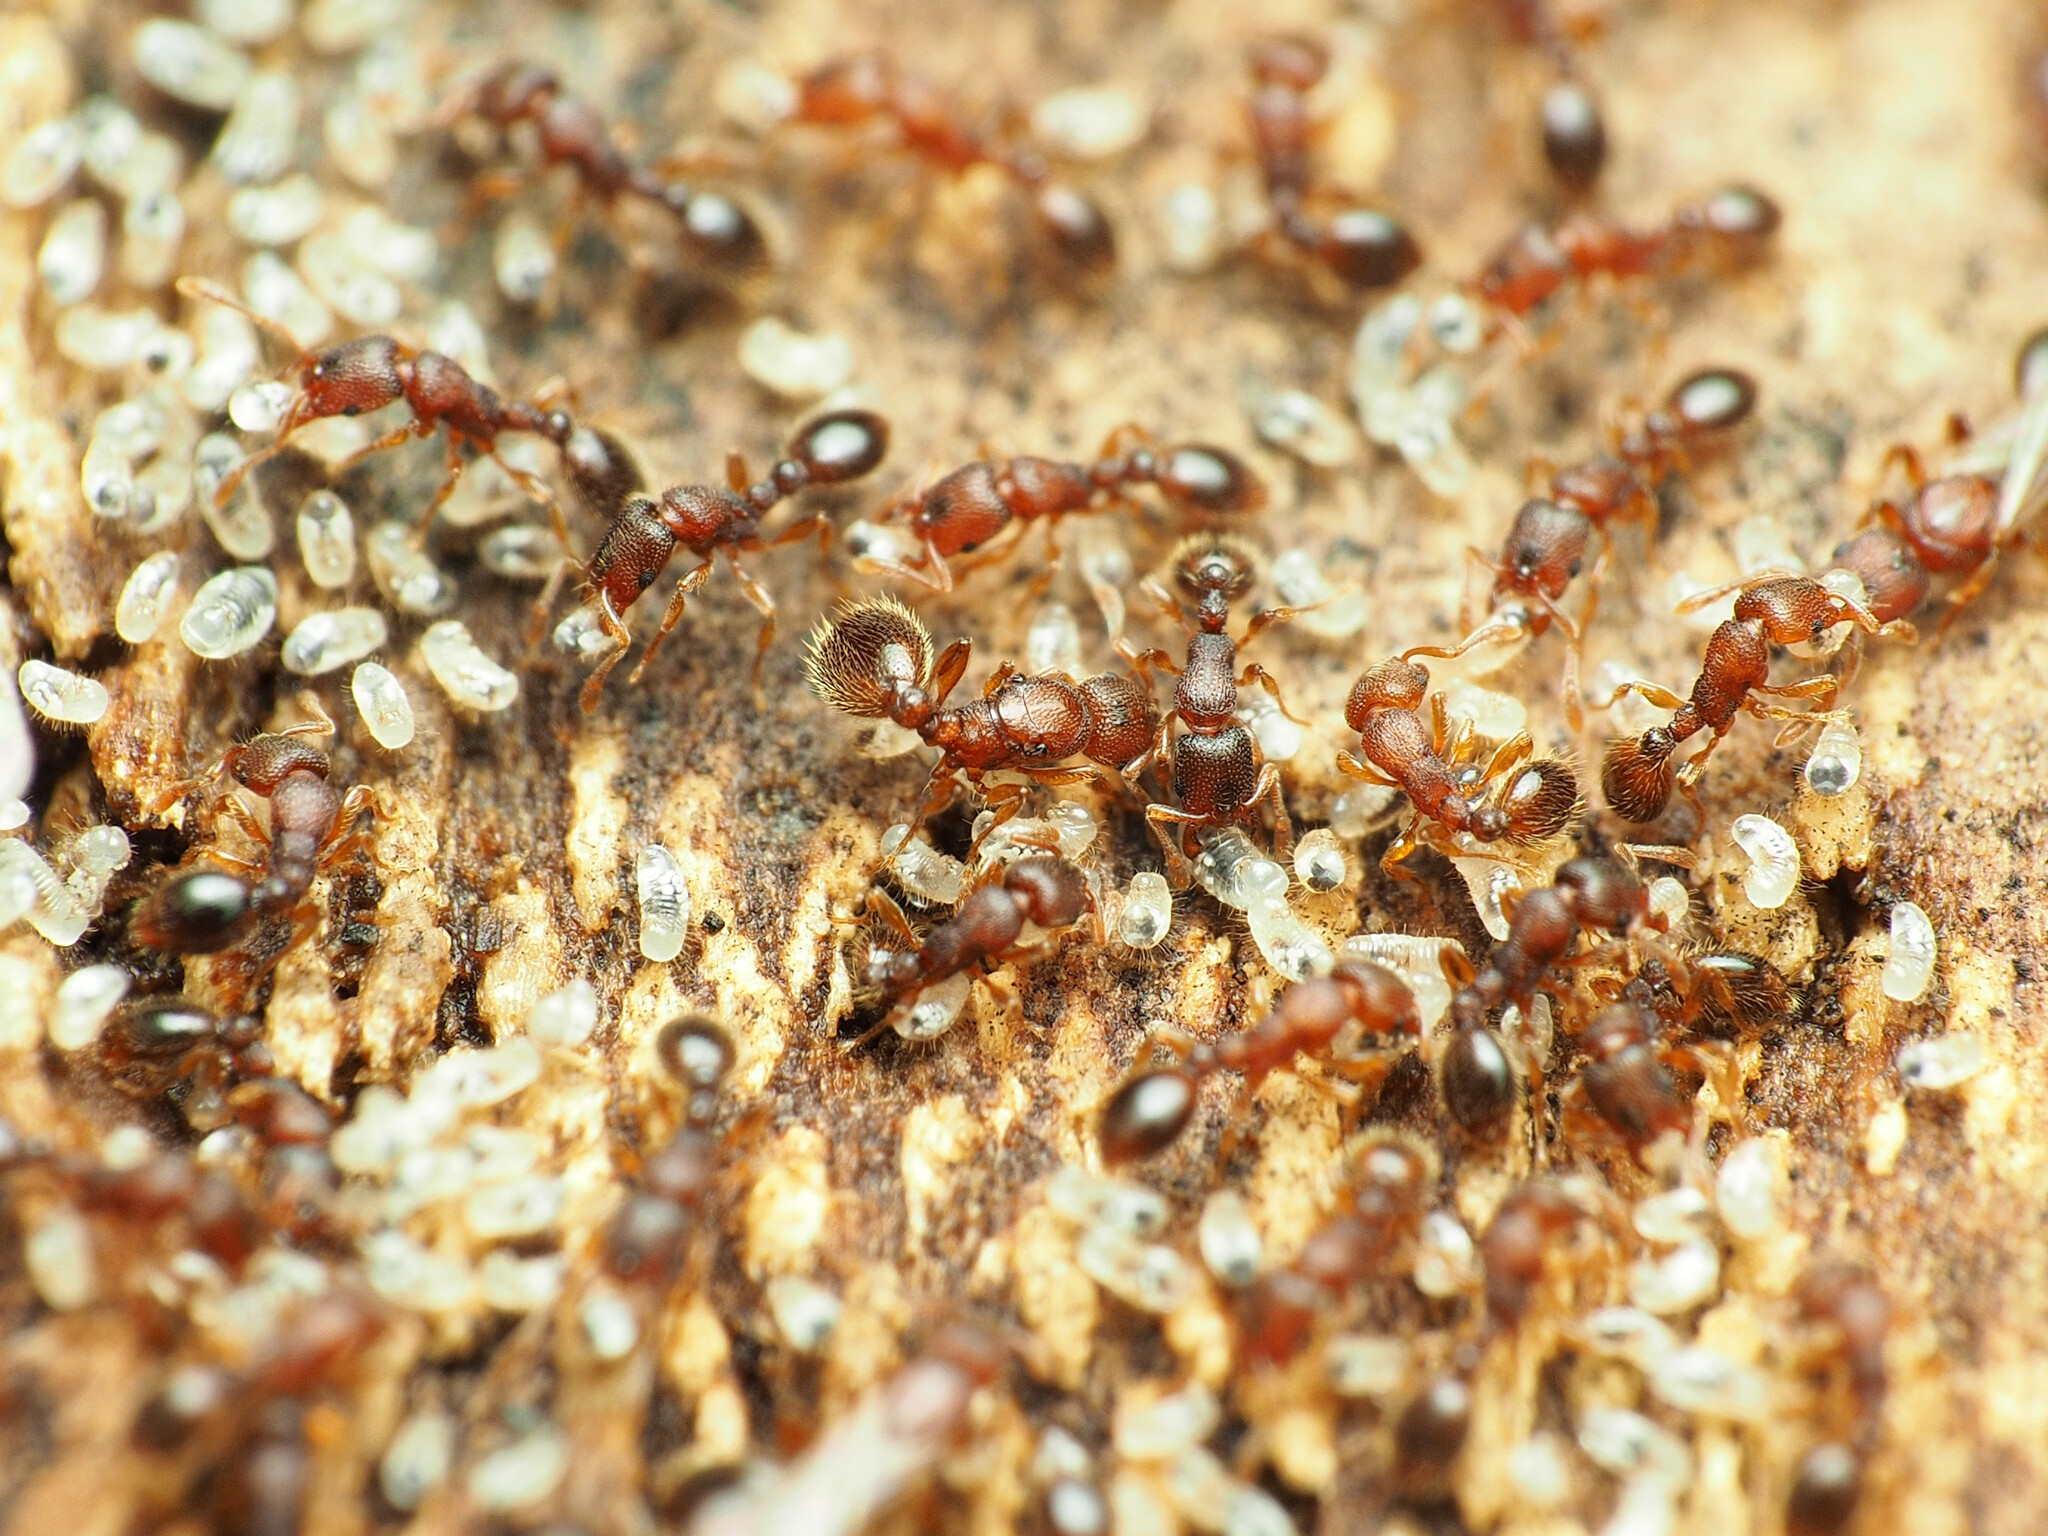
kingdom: Animalia
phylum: Arthropoda
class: Insecta
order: Hymenoptera
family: Formicidae
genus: Vollenhovia
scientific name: Vollenhovia emeryi
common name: Ant
